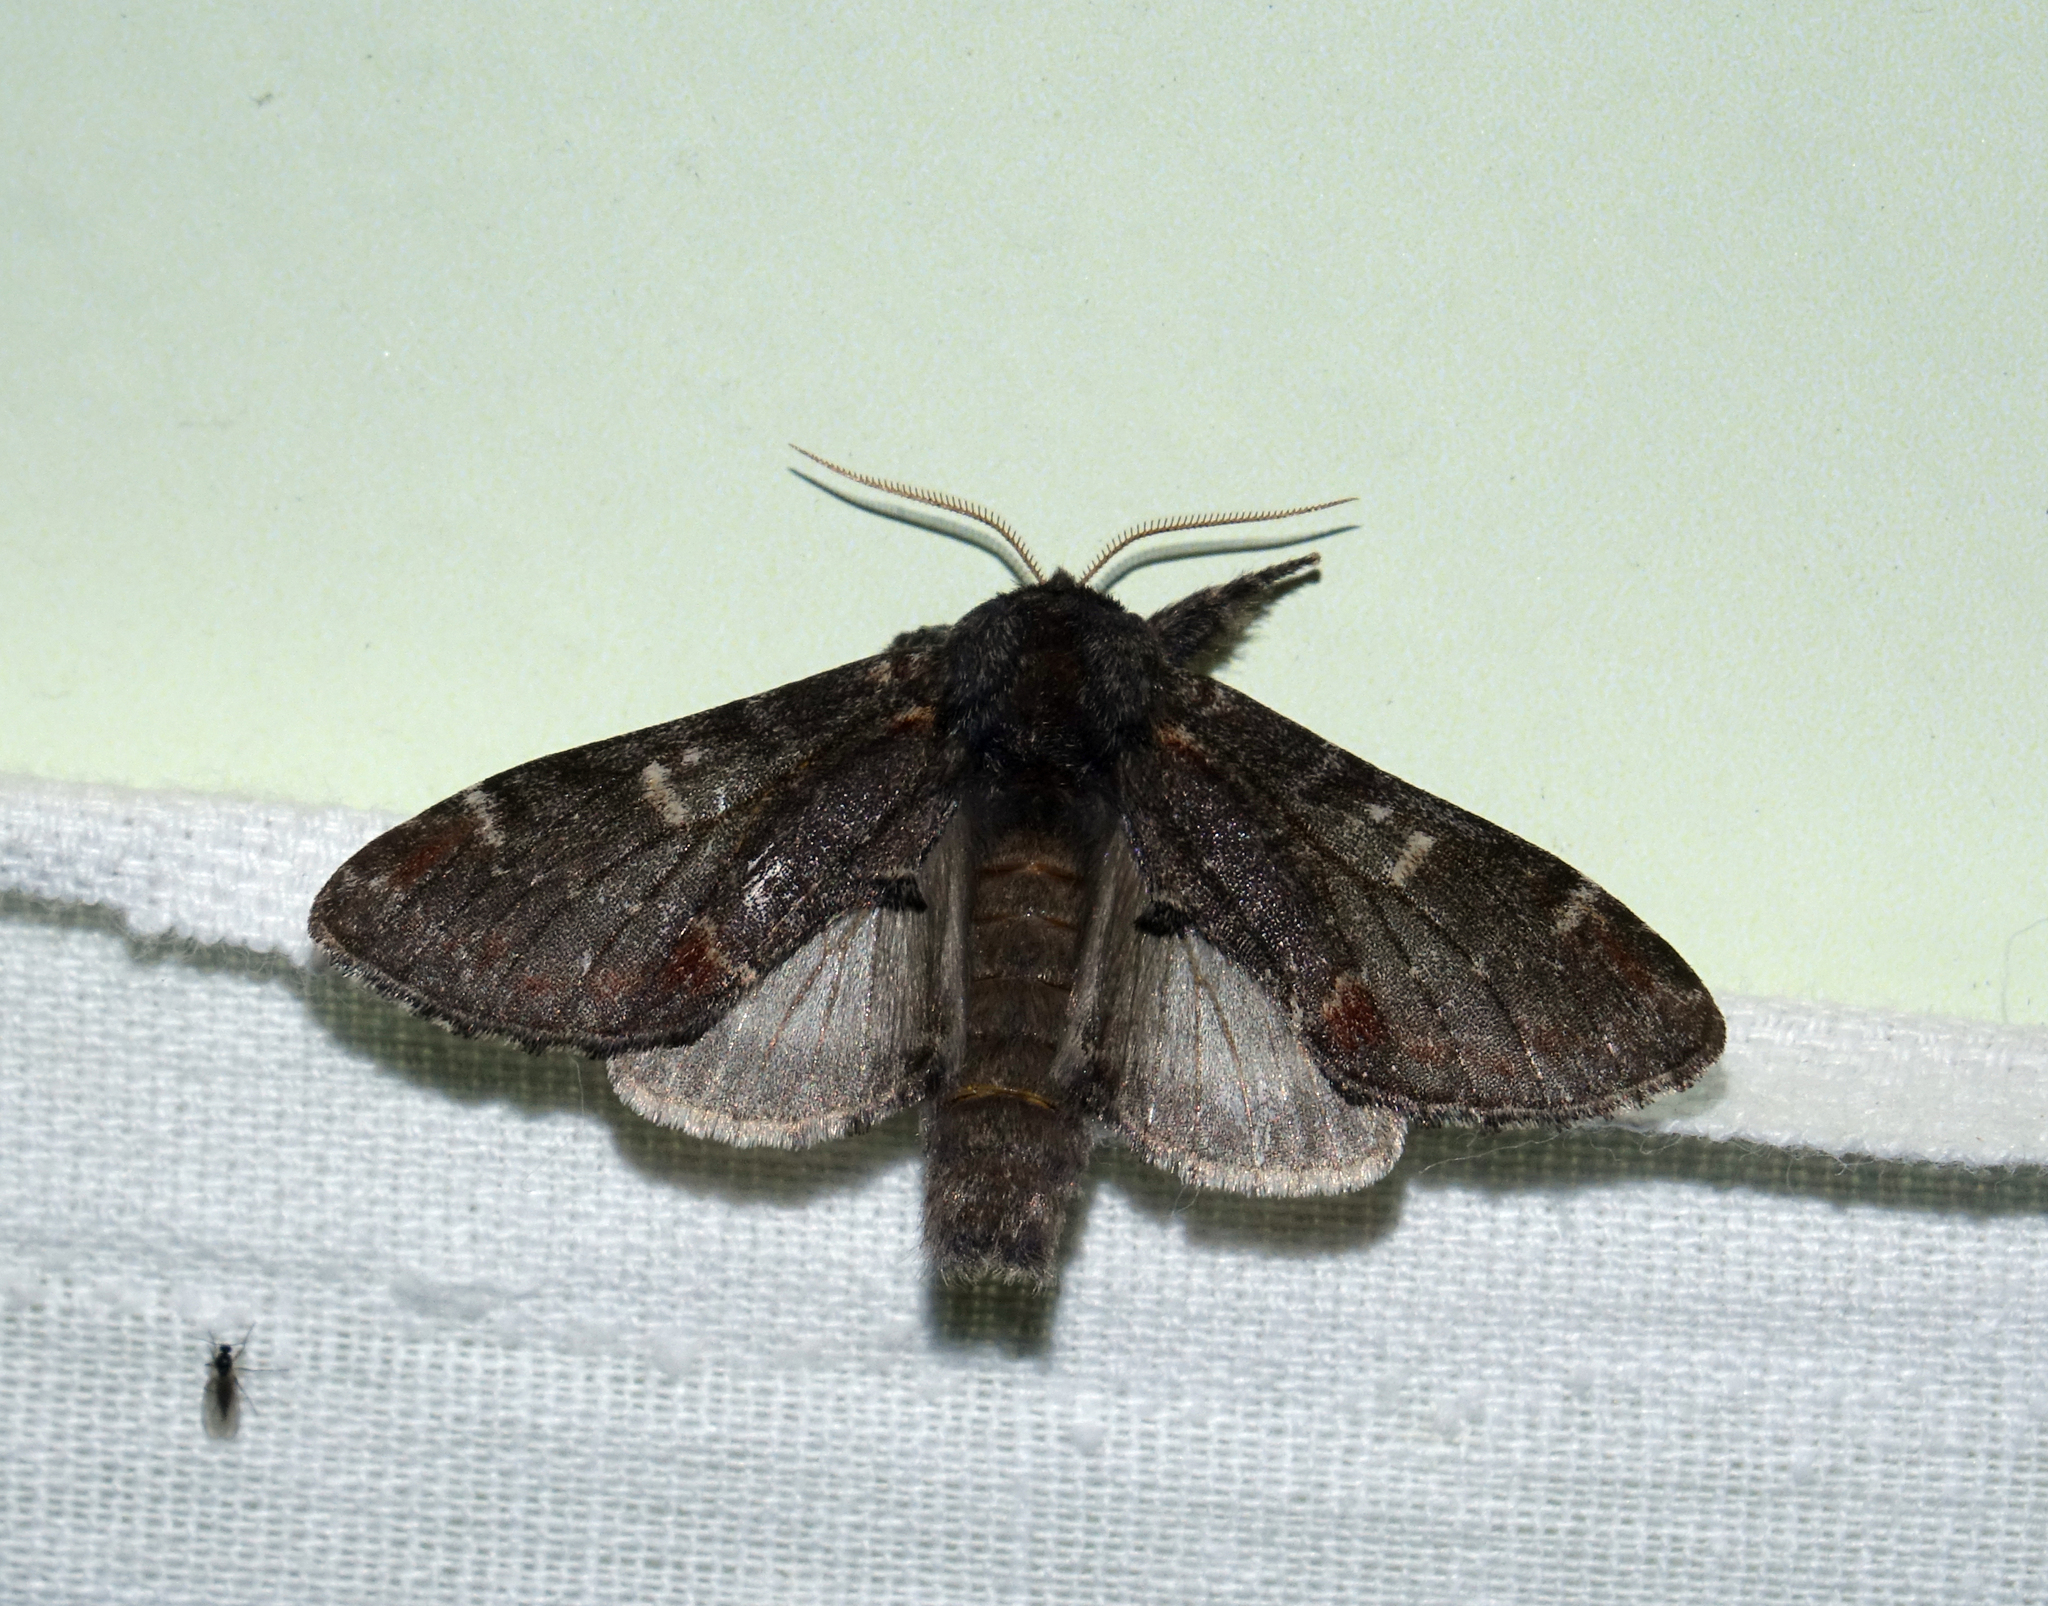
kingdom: Animalia
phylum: Arthropoda
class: Insecta
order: Lepidoptera
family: Notodontidae
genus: Notodonta
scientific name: Notodonta dromedarius
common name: Iron prominent
